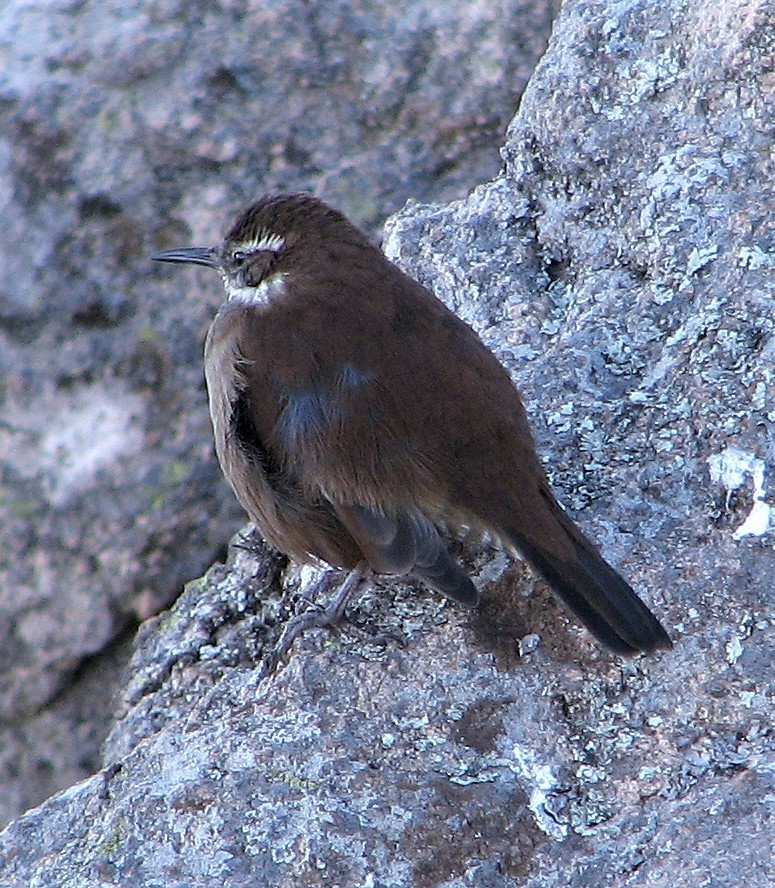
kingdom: Animalia
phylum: Chordata
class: Aves
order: Passeriformes
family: Furnariidae
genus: Cinclodes
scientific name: Cinclodes atacamensis
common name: White-winged cinclodes
